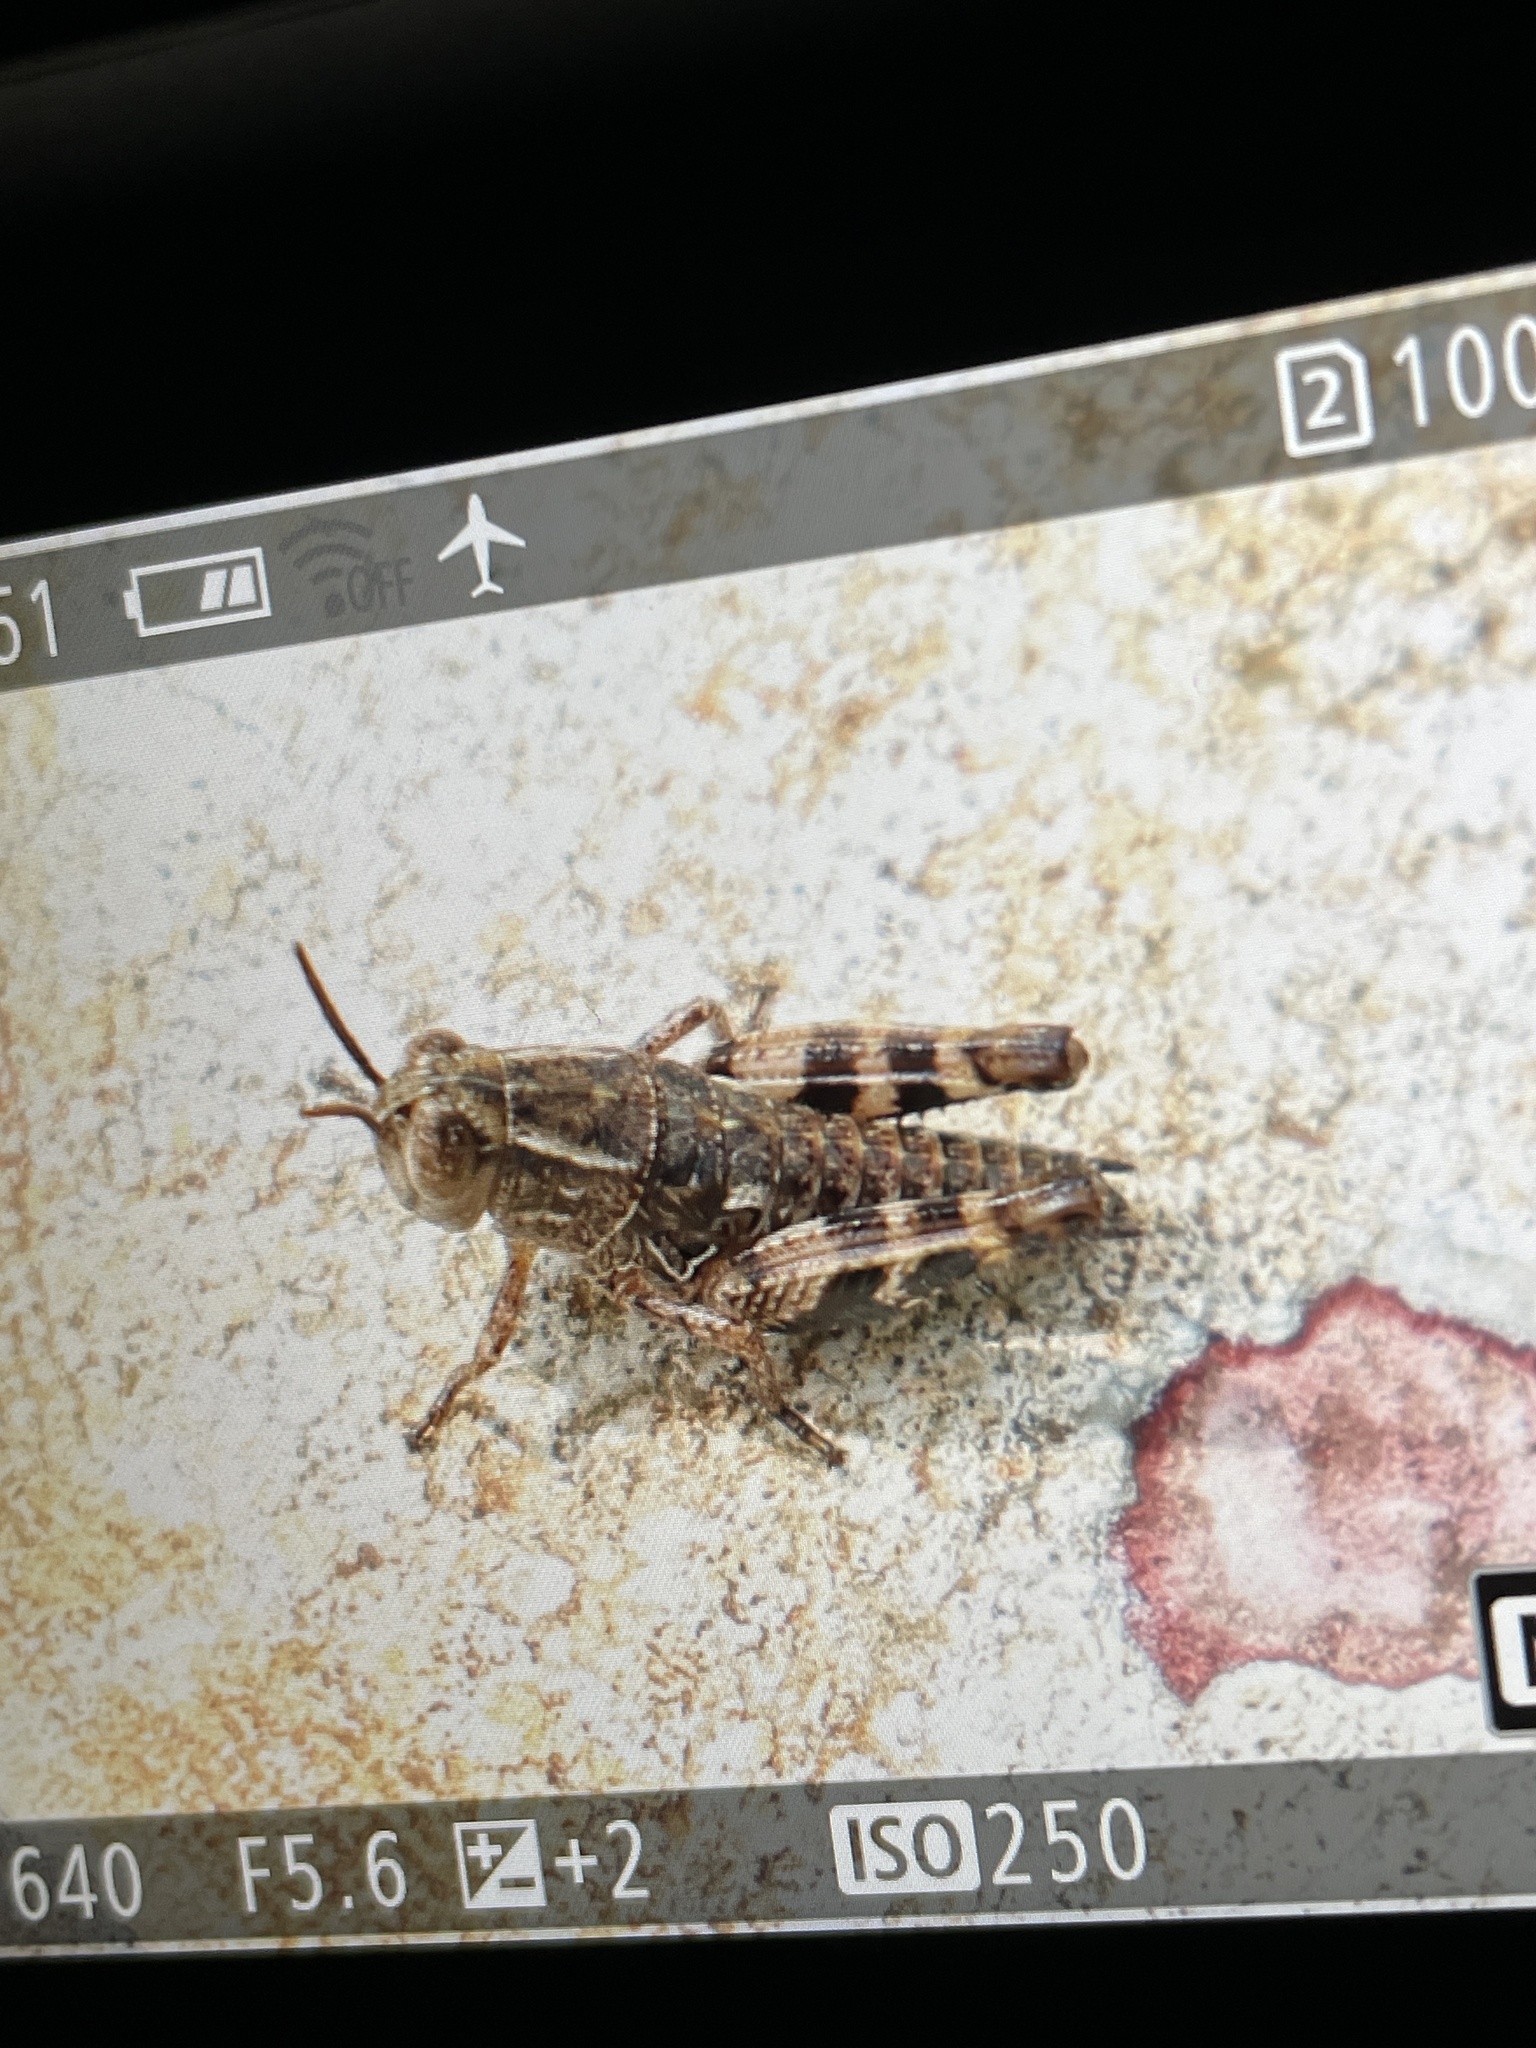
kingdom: Animalia
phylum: Arthropoda
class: Insecta
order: Orthoptera
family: Acrididae
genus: Calliptamus
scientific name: Calliptamus
